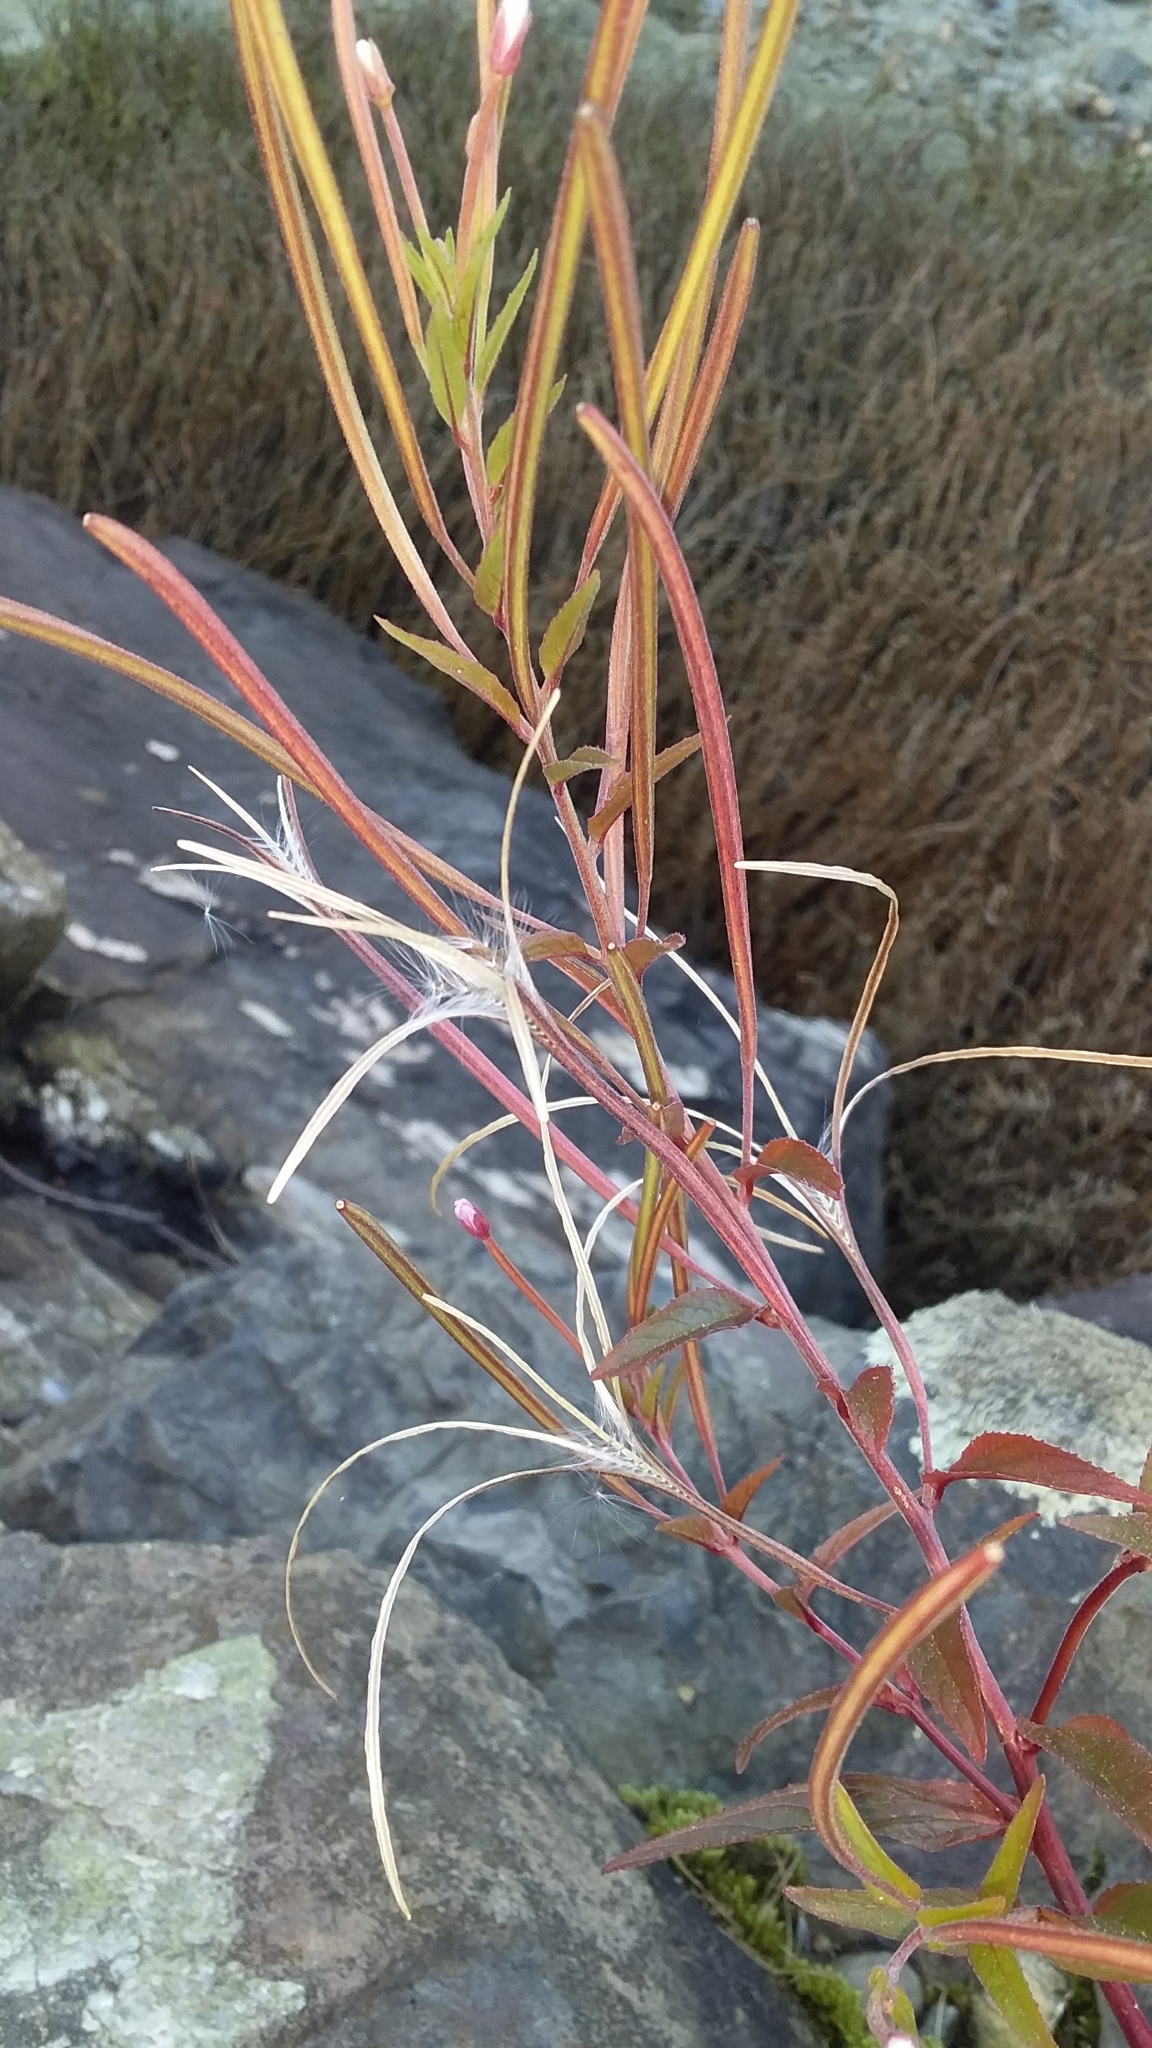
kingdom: Plantae
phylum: Tracheophyta
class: Magnoliopsida
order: Myrtales
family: Onagraceae
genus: Epilobium
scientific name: Epilobium ciliatum
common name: American willowherb
